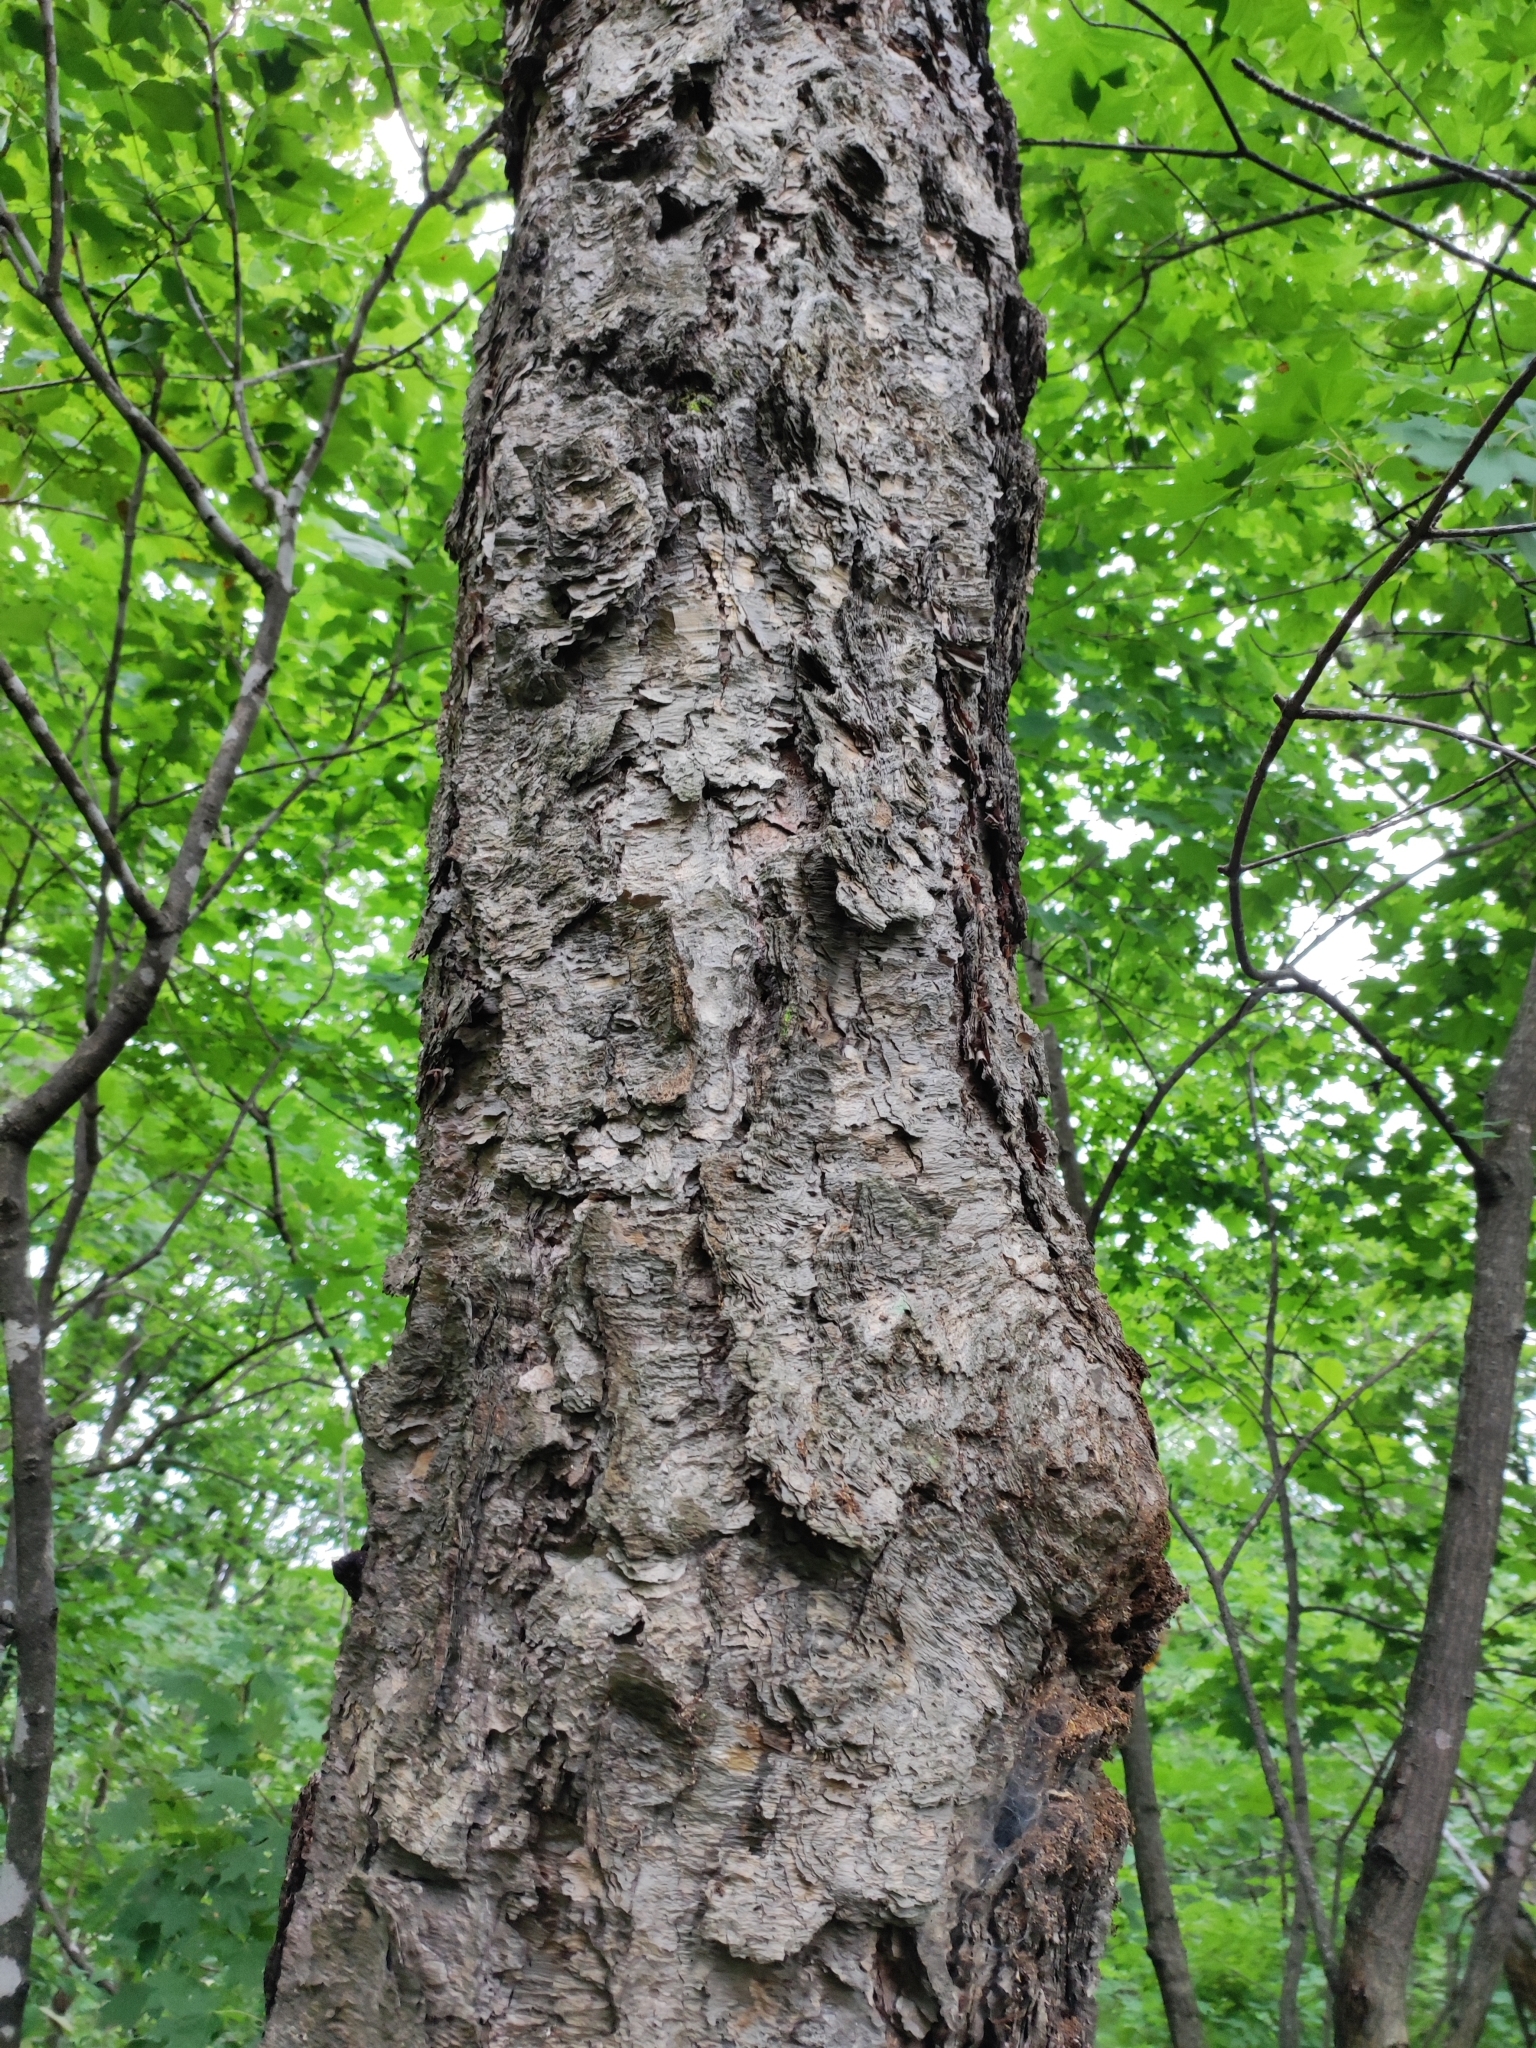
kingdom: Plantae
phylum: Tracheophyta
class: Magnoliopsida
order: Fagales
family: Betulaceae
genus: Betula
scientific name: Betula dauurica
